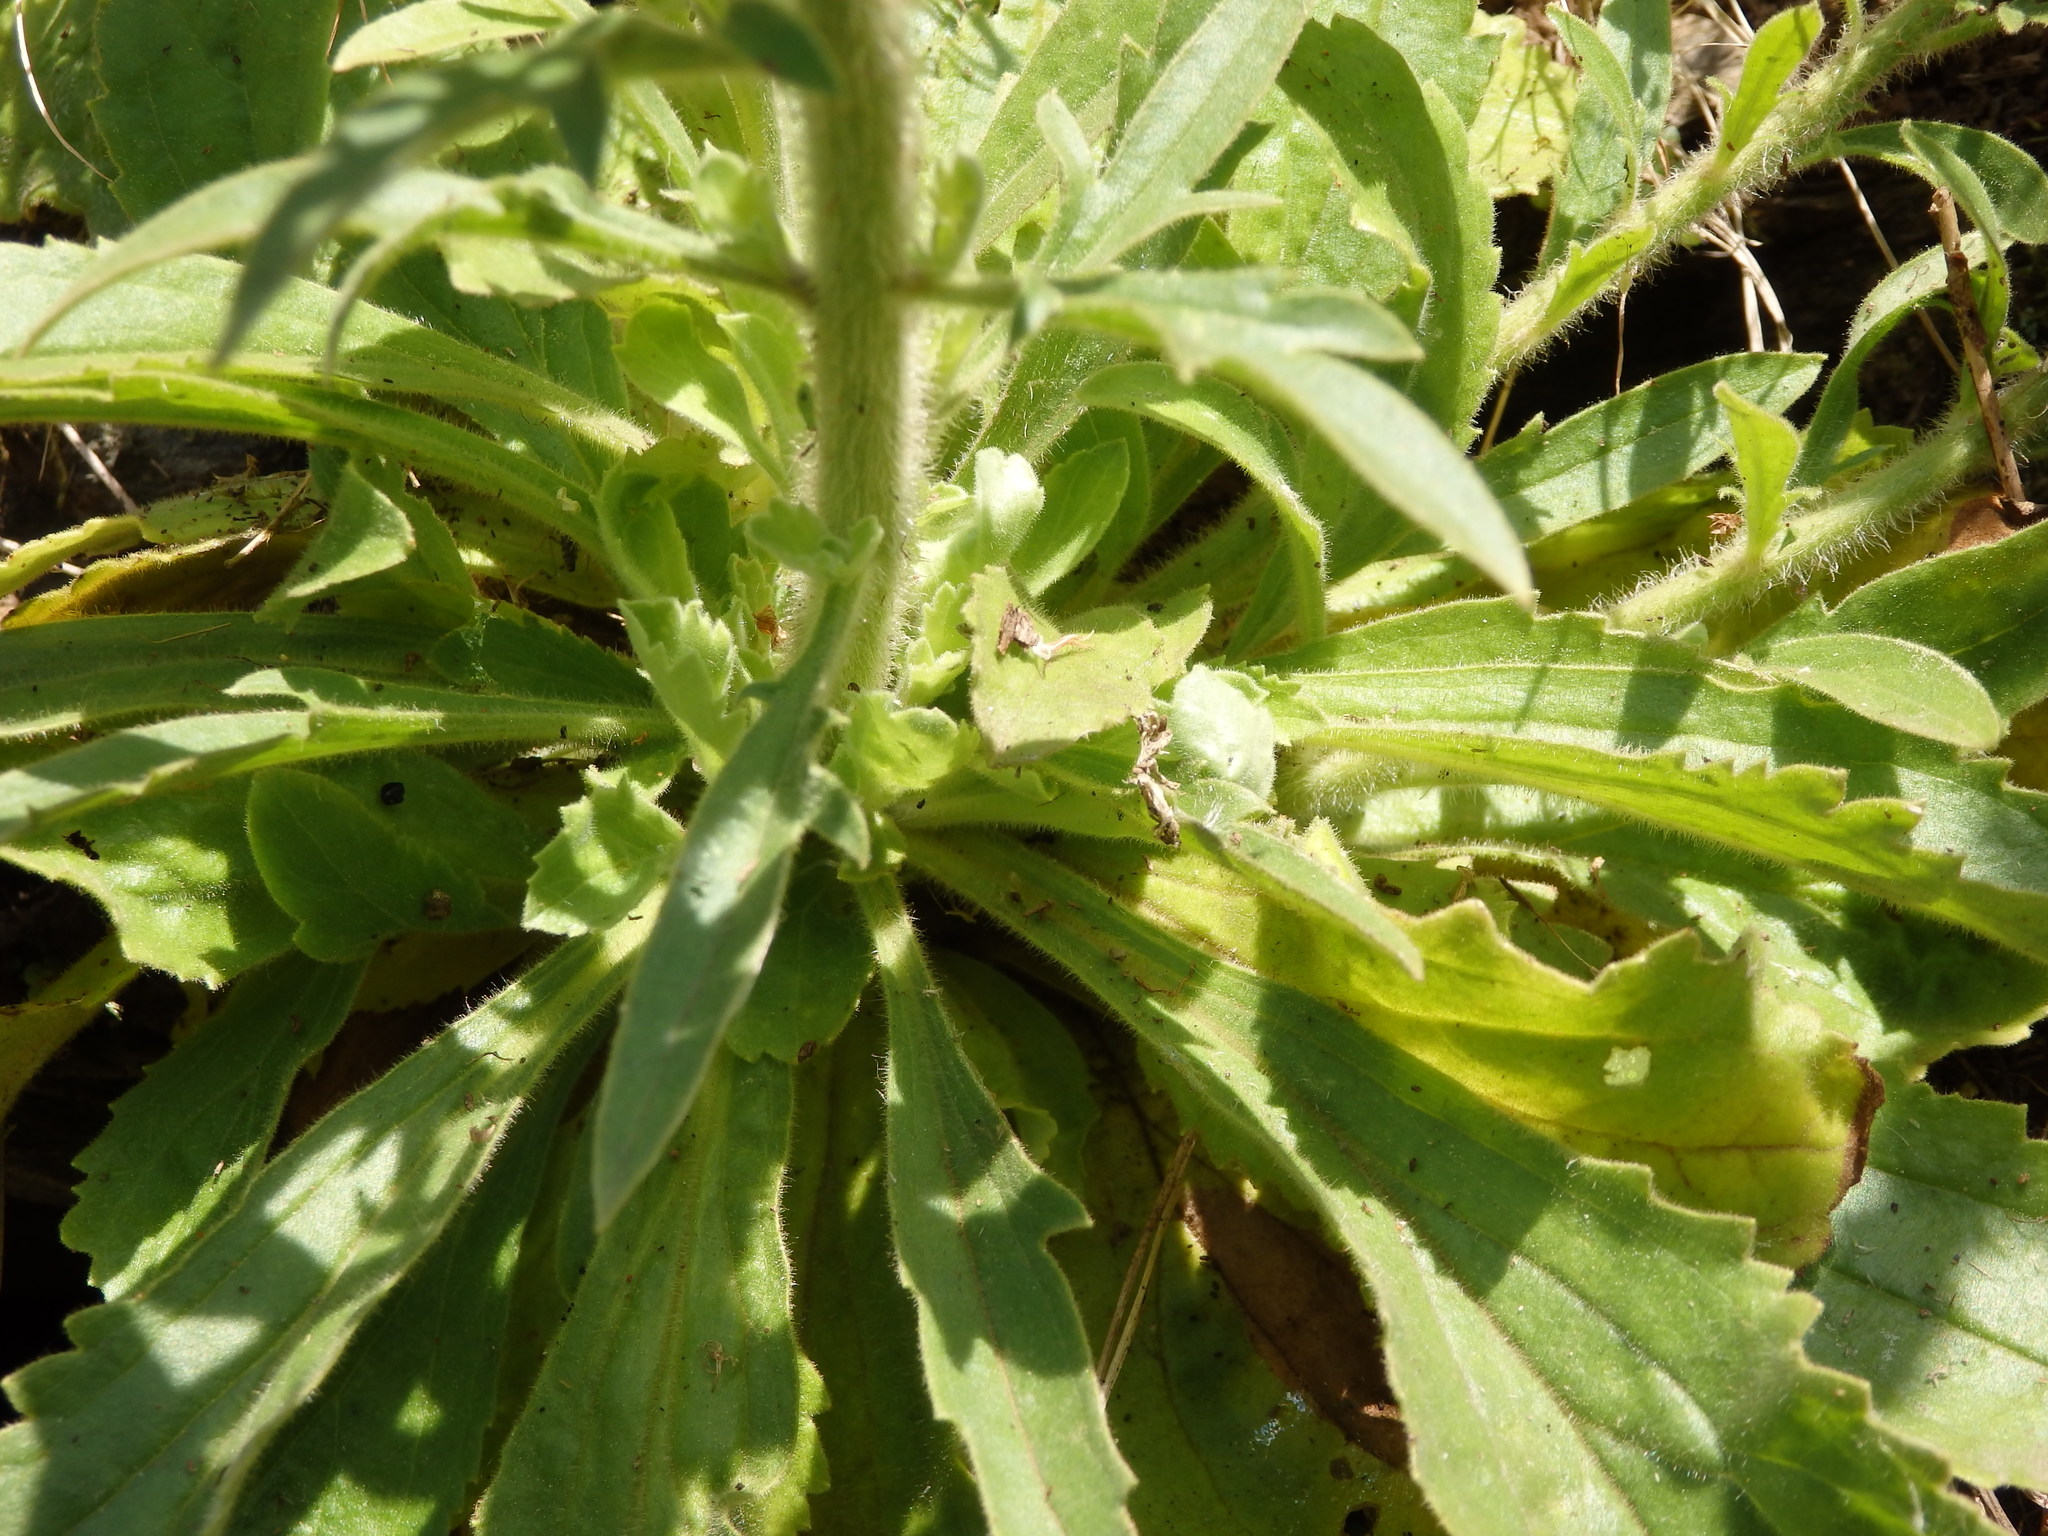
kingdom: Plantae
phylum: Tracheophyta
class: Magnoliopsida
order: Lamiales
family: Plantaginaceae
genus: Anarrhinum
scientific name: Anarrhinum duriminium
